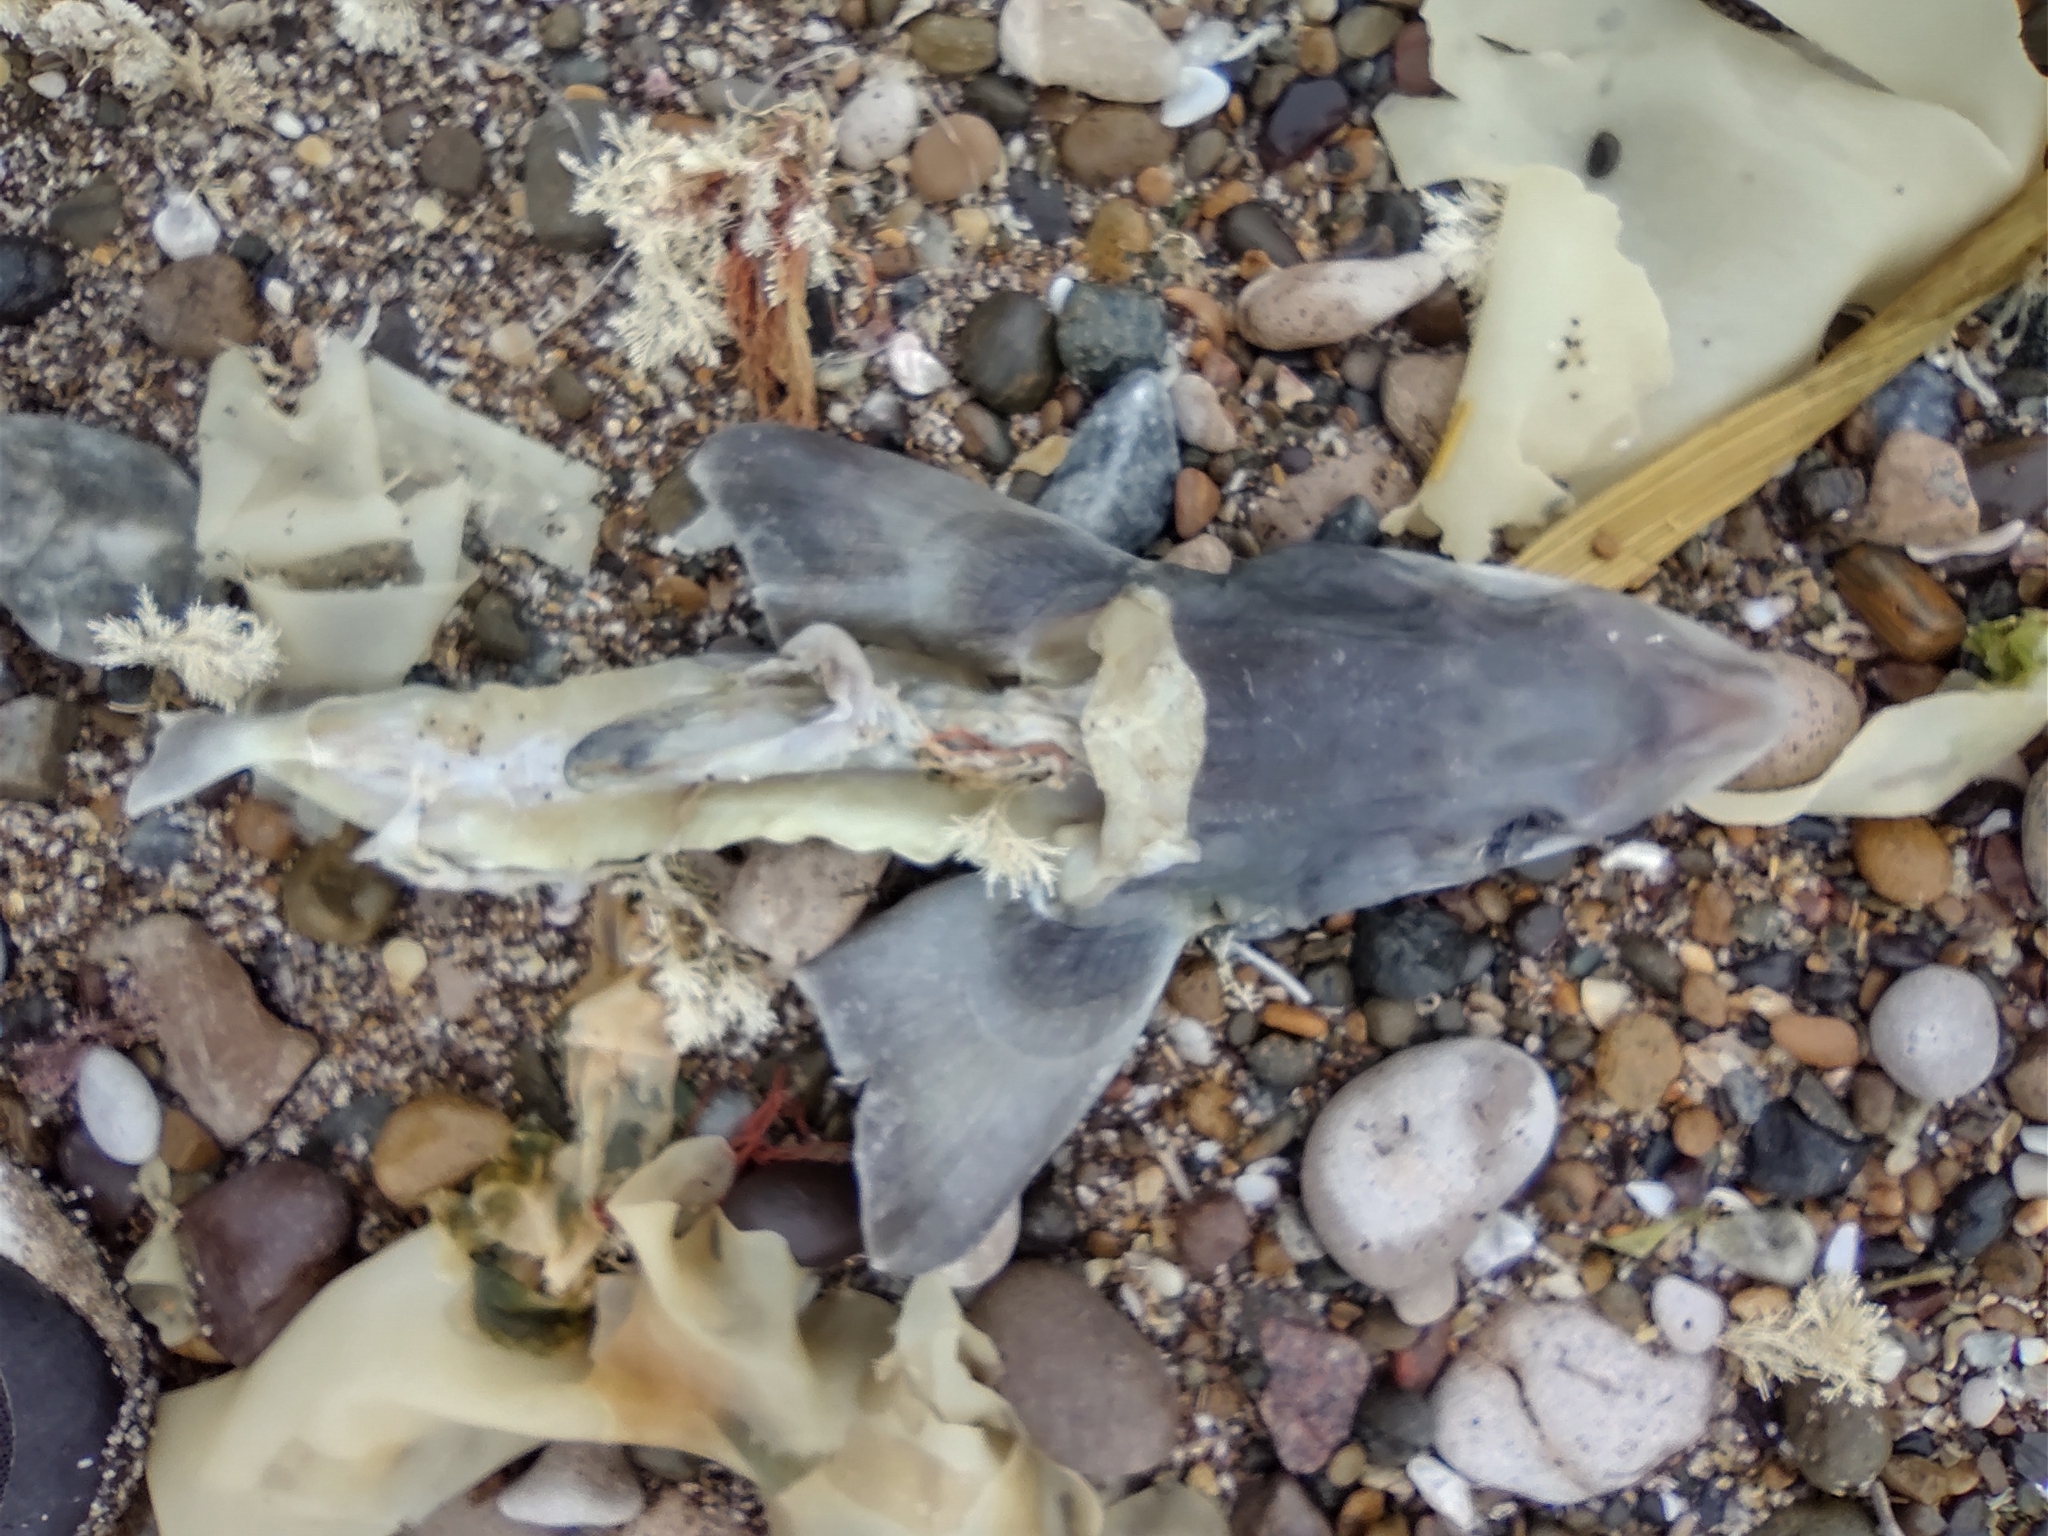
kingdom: Animalia
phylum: Chordata
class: Elasmobranchii
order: Carcharhiniformes
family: Triakidae
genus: Mustelus
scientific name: Mustelus schmitti
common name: Narrownose smooth-hound
